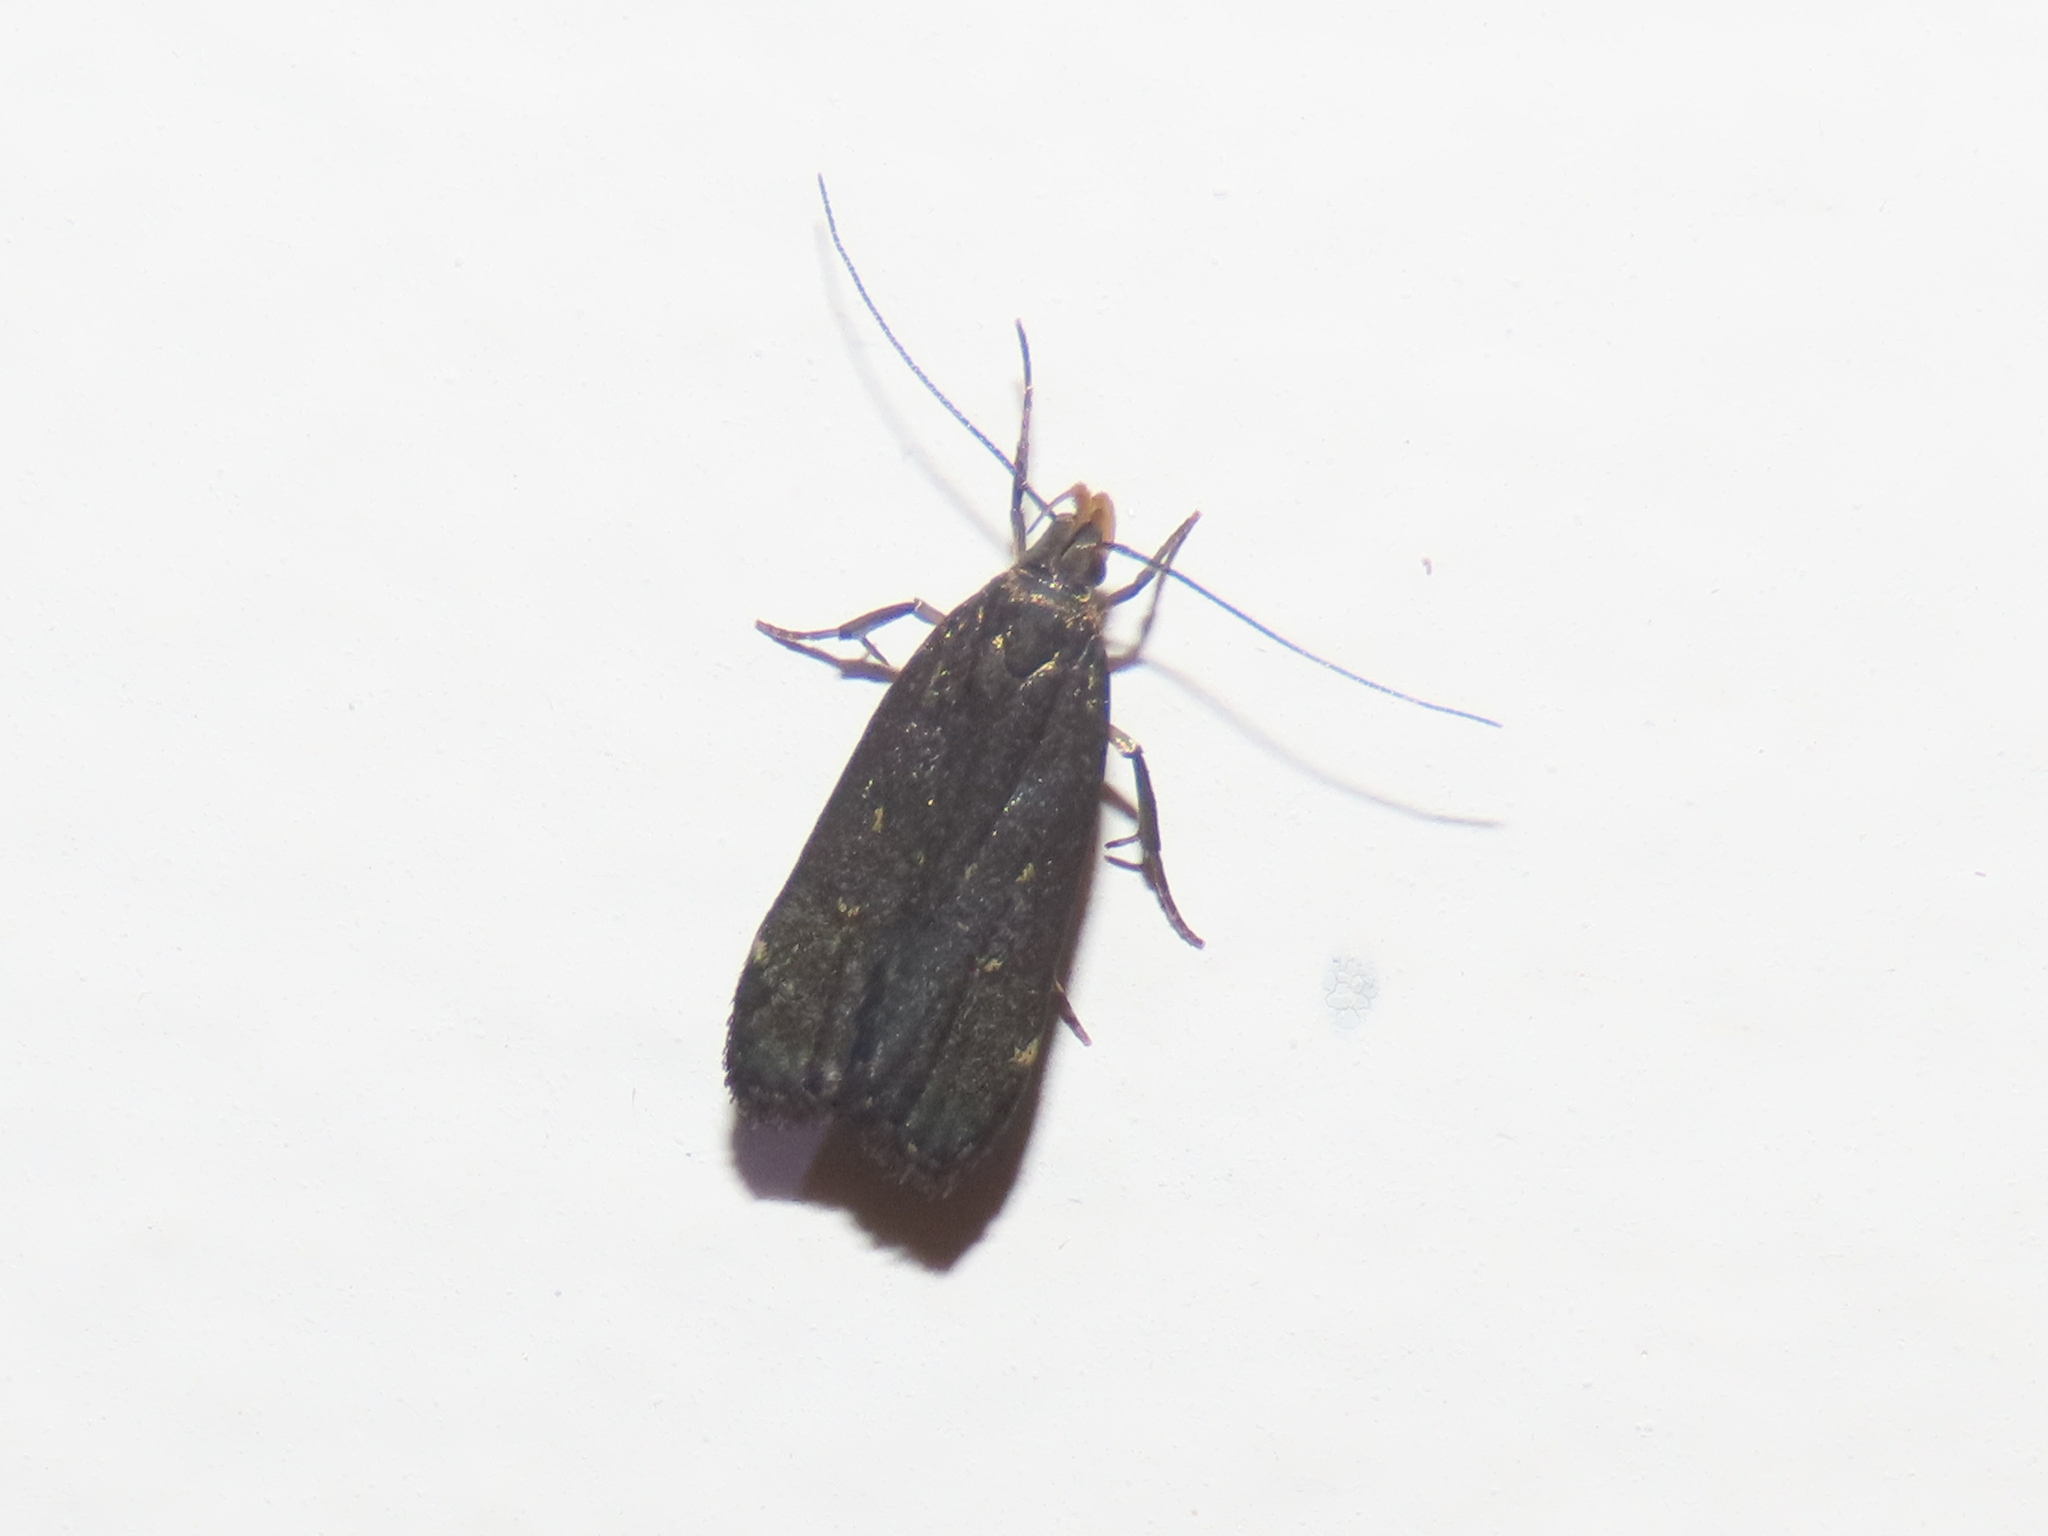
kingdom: Animalia
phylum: Arthropoda
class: Insecta
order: Lepidoptera
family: Gelechiidae
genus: Dichomeris
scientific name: Dichomeris juncidella
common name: Orange-dotted dichomeris moth
